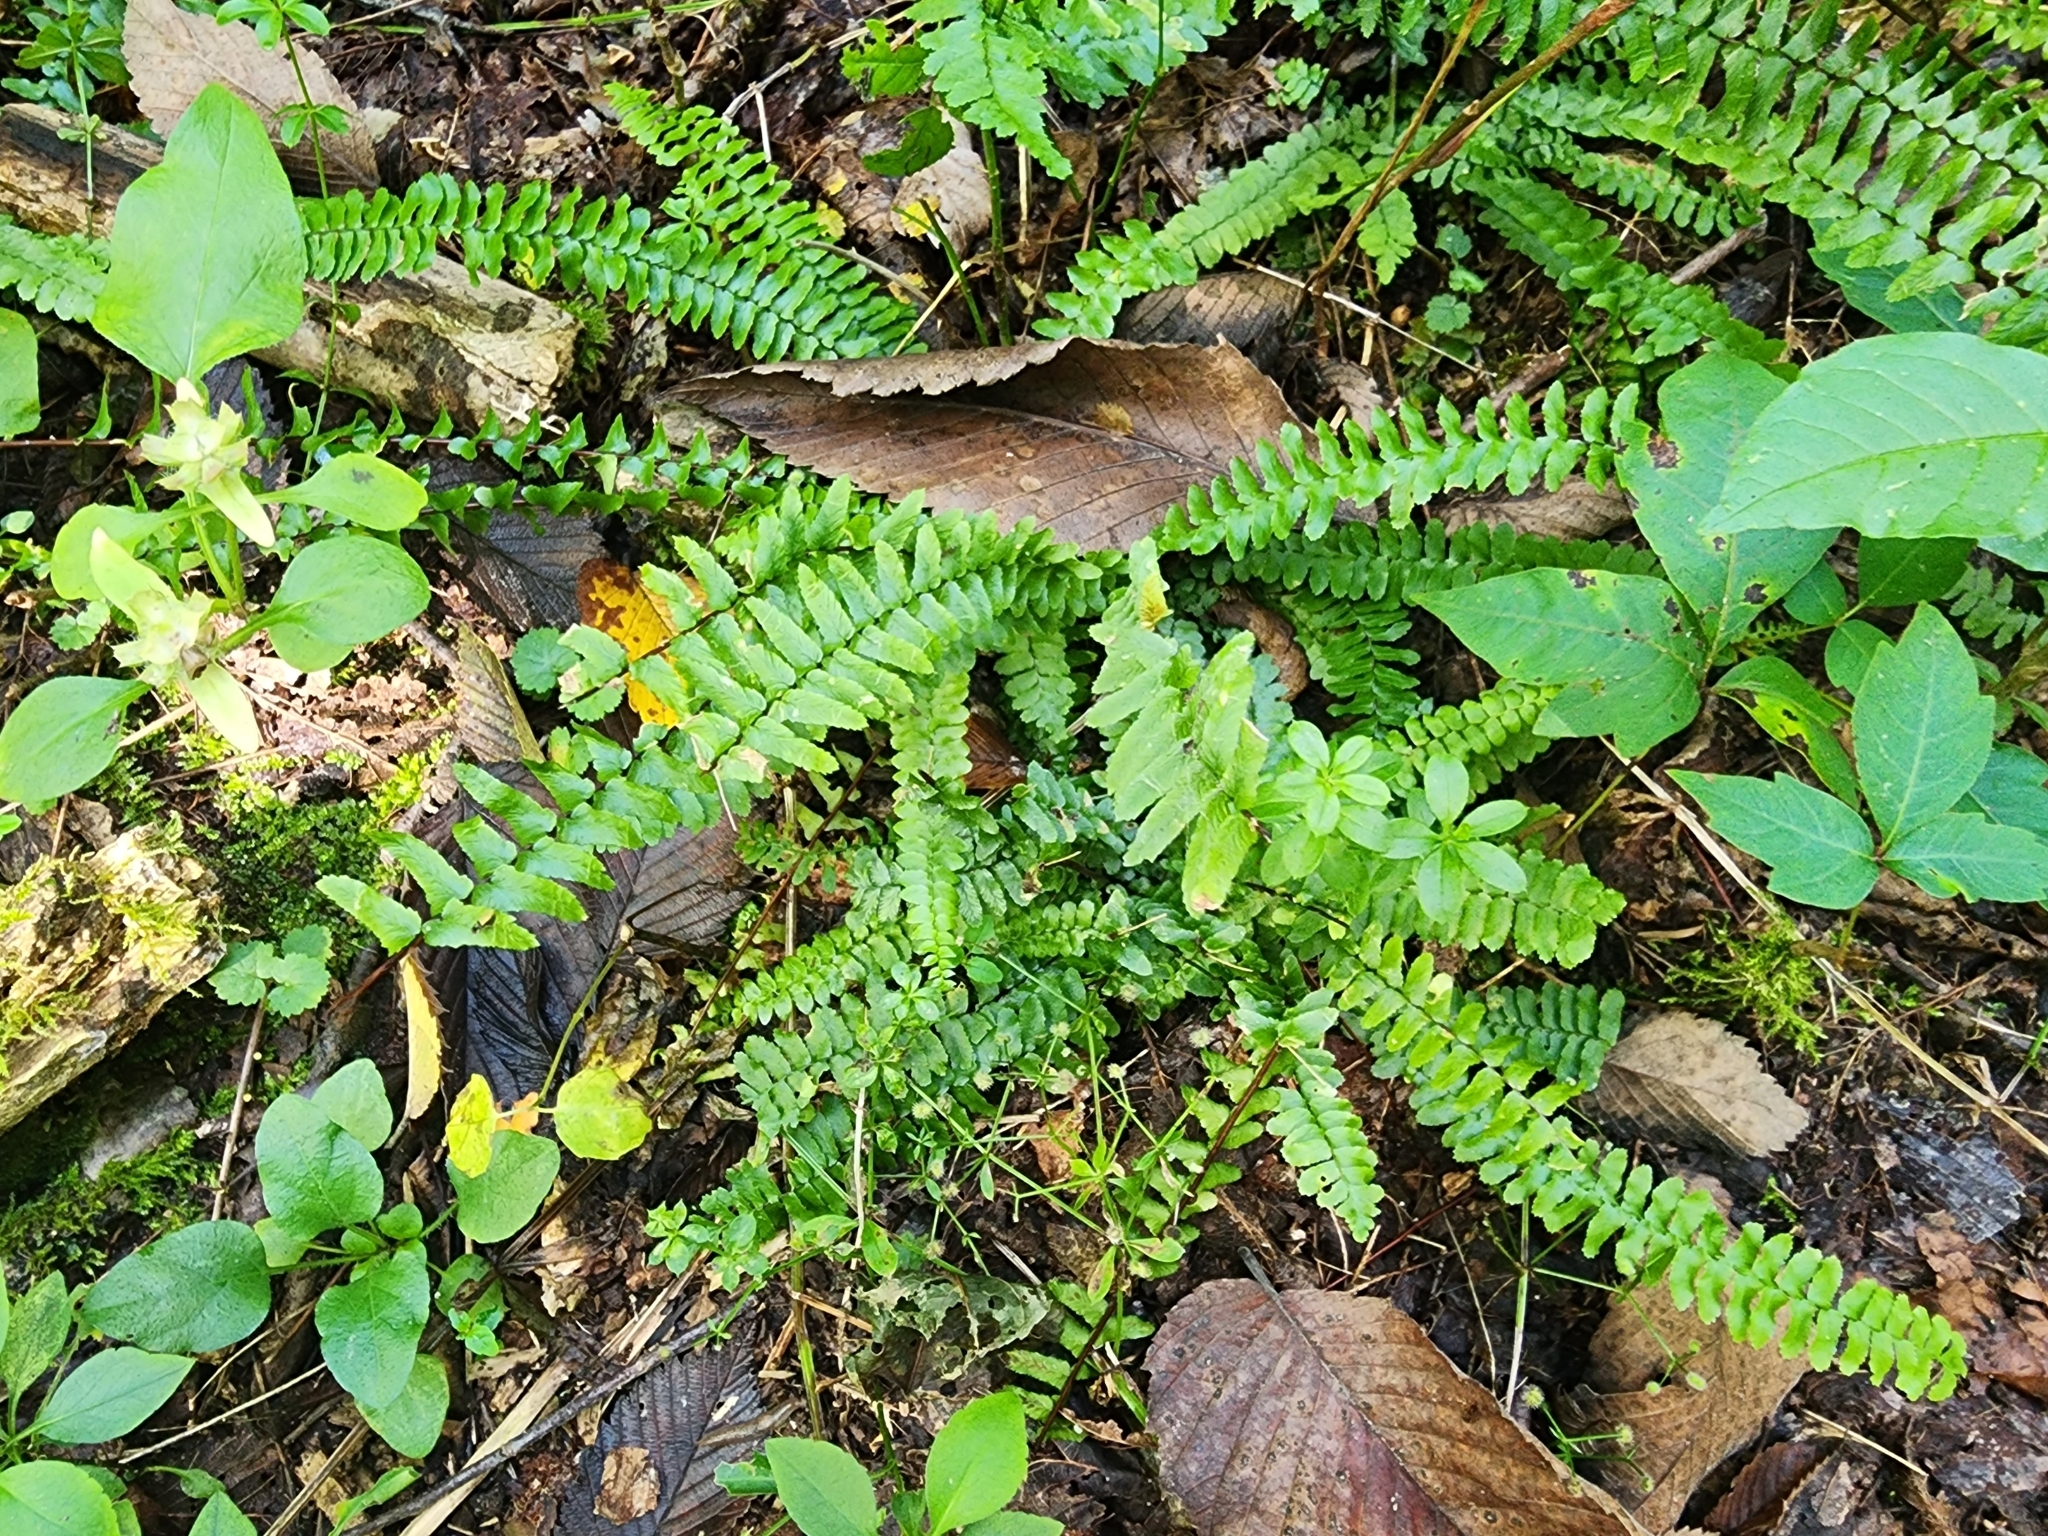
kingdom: Plantae
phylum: Tracheophyta
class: Polypodiopsida
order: Polypodiales
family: Aspleniaceae
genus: Asplenium
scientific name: Asplenium platyneuron
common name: Ebony spleenwort
